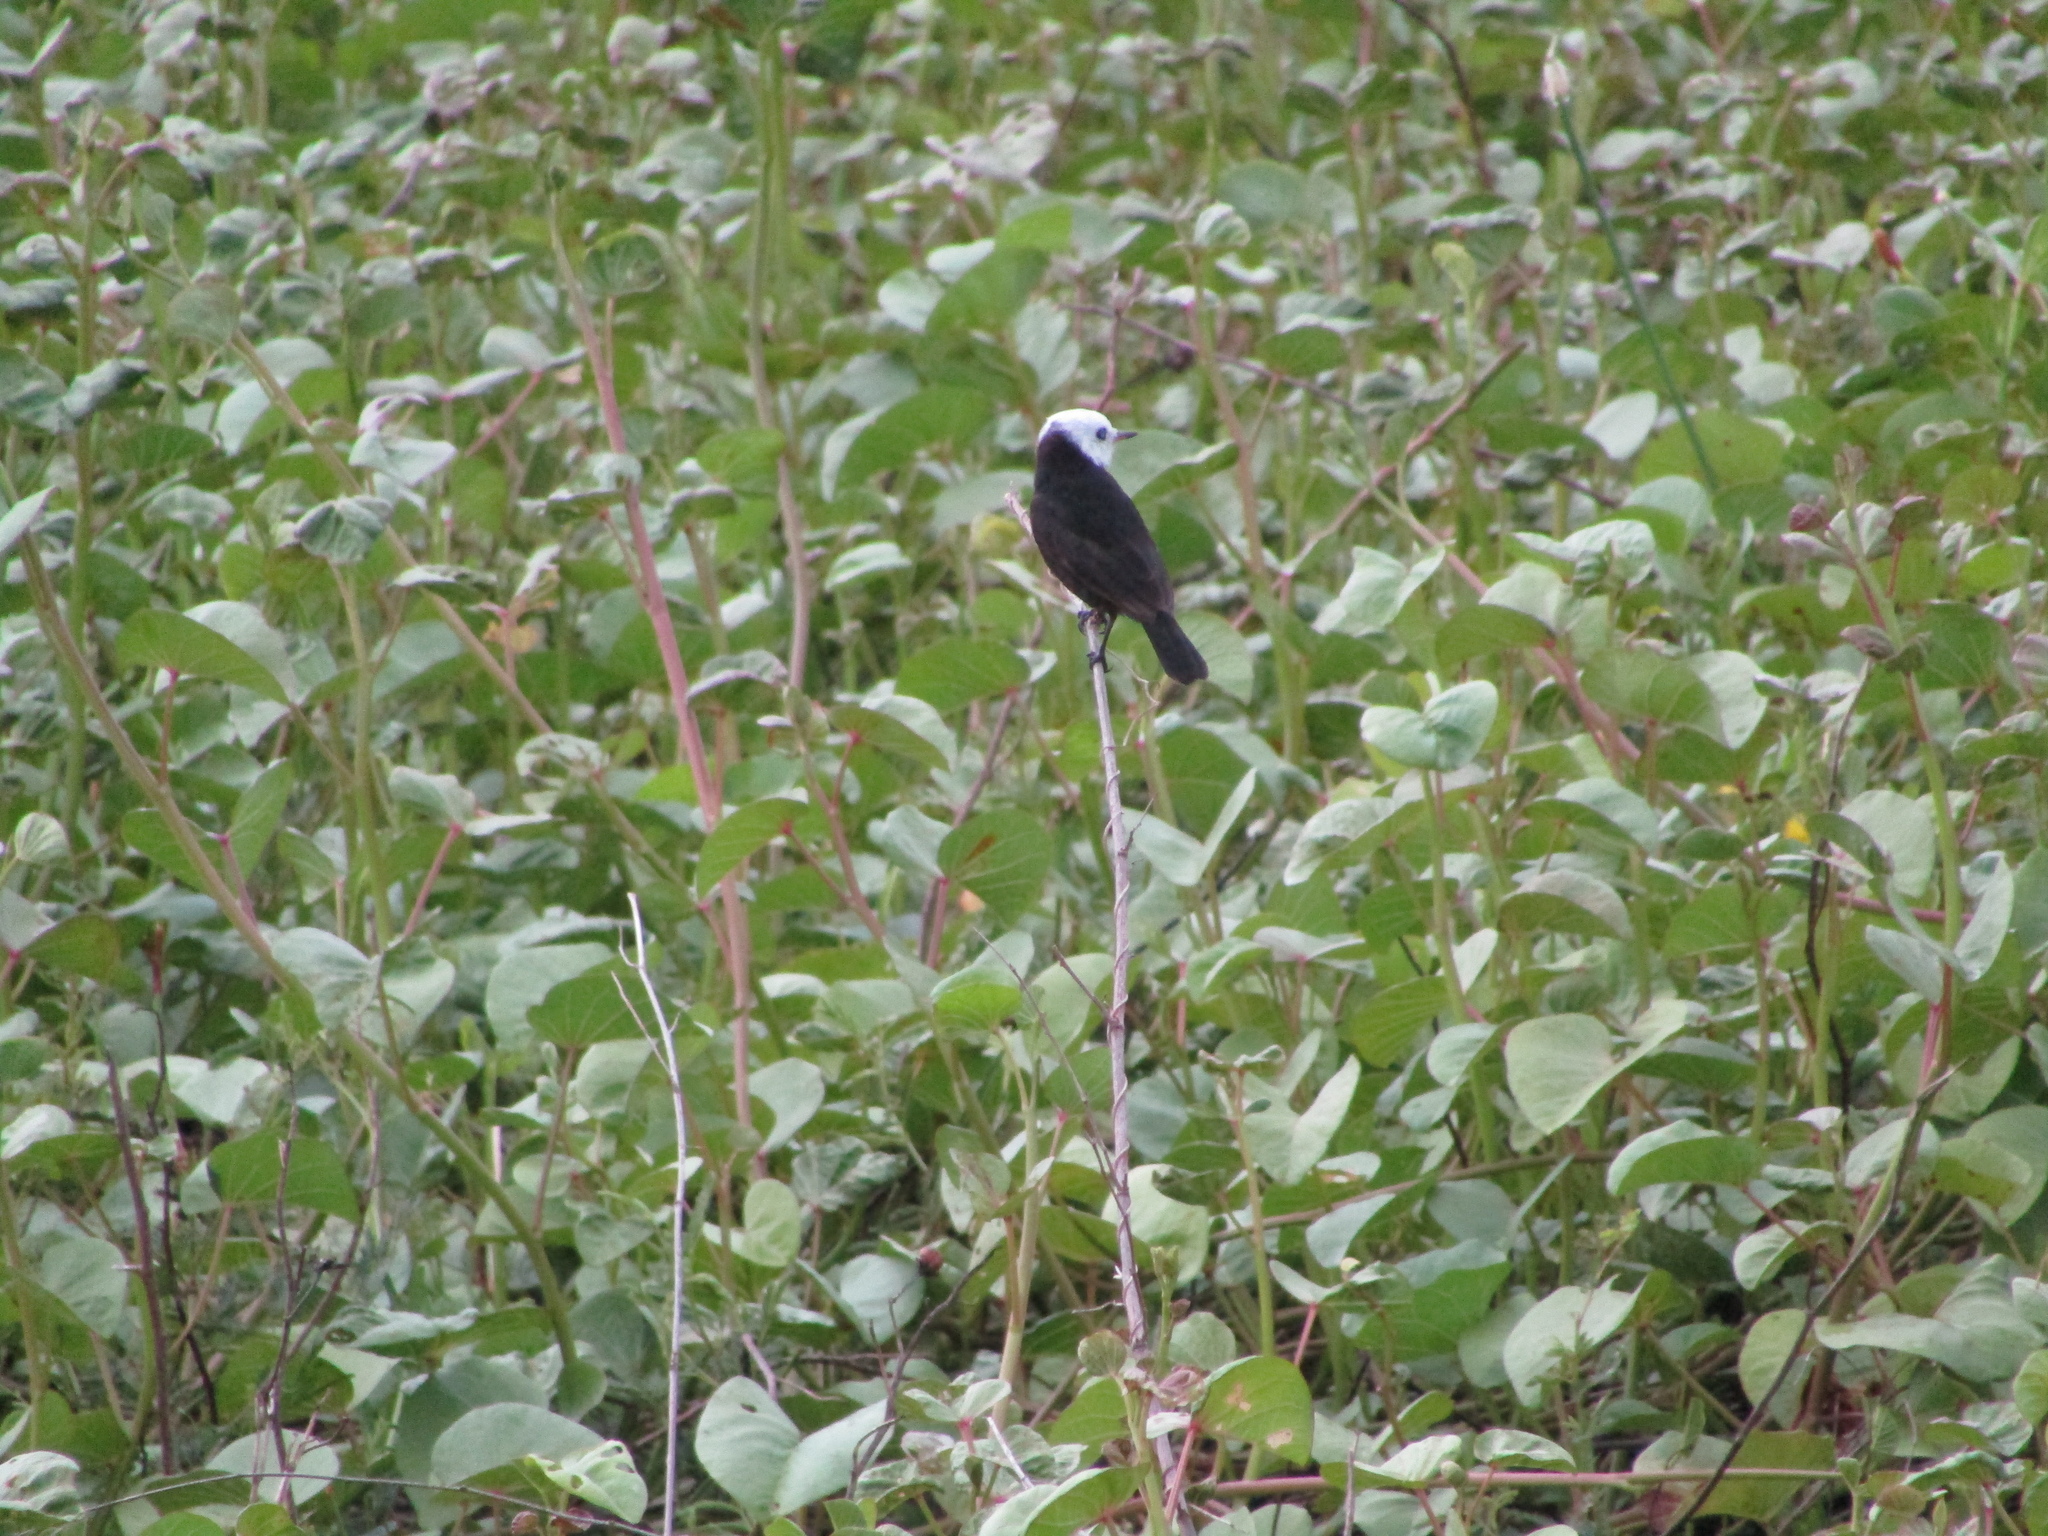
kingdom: Animalia
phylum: Chordata
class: Aves
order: Passeriformes
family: Tyrannidae
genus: Arundinicola
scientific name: Arundinicola leucocephala
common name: White-headed marsh tyrant
